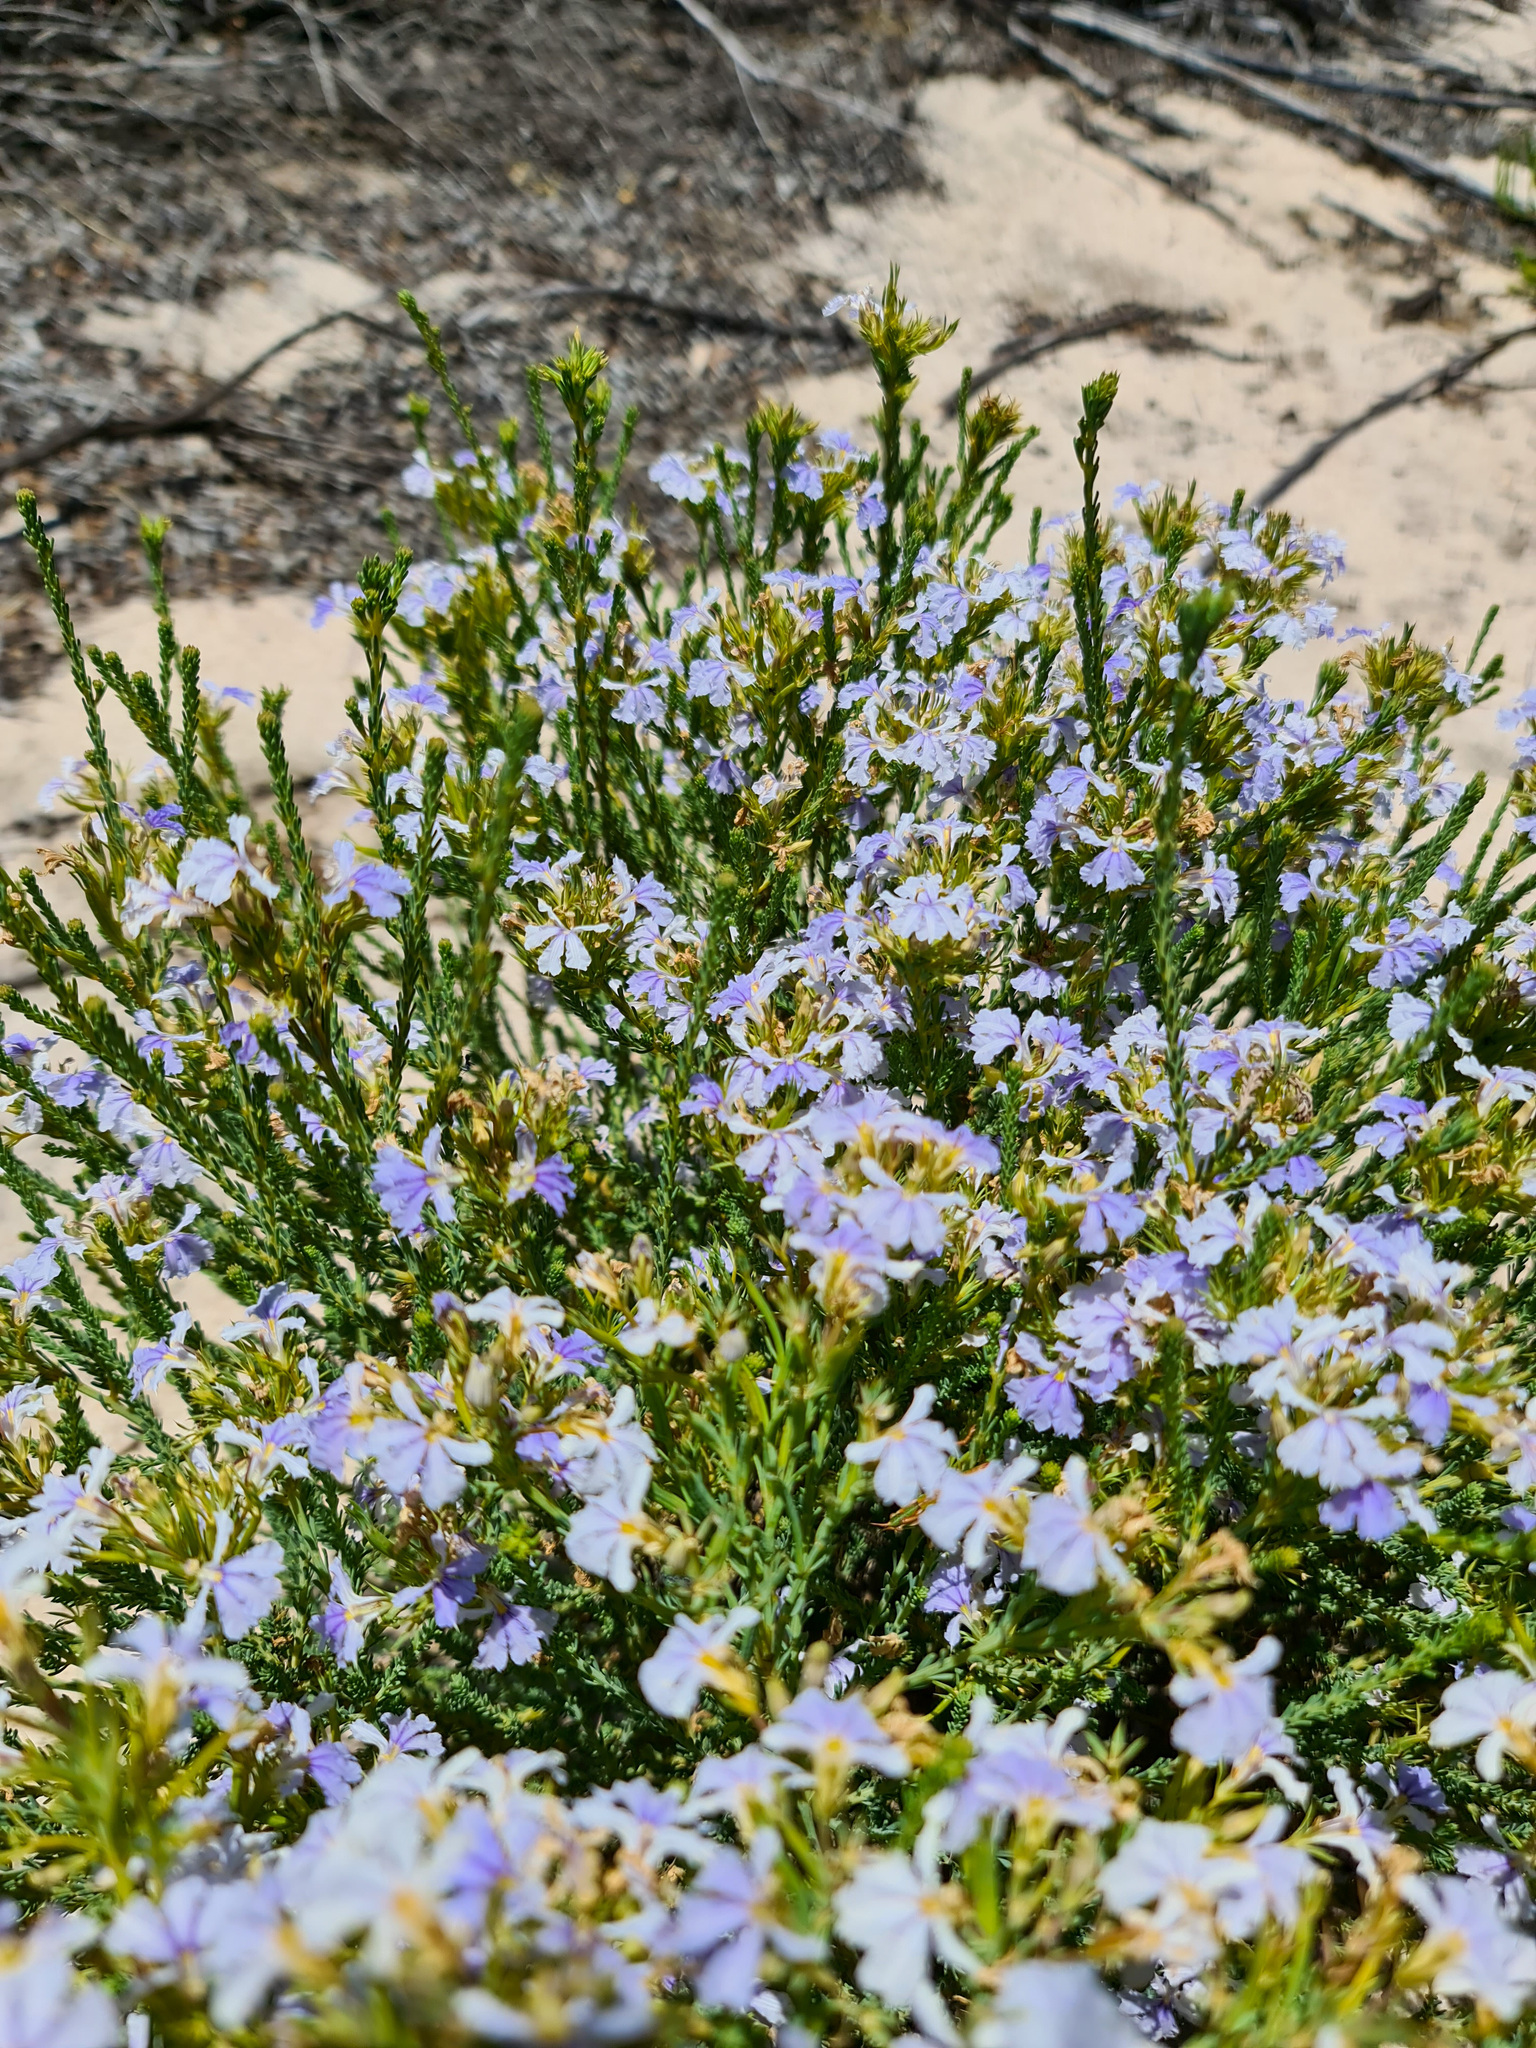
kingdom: Plantae
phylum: Tracheophyta
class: Magnoliopsida
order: Asterales
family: Goodeniaceae
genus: Lechenaultia
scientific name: Lechenaultia floribunda
